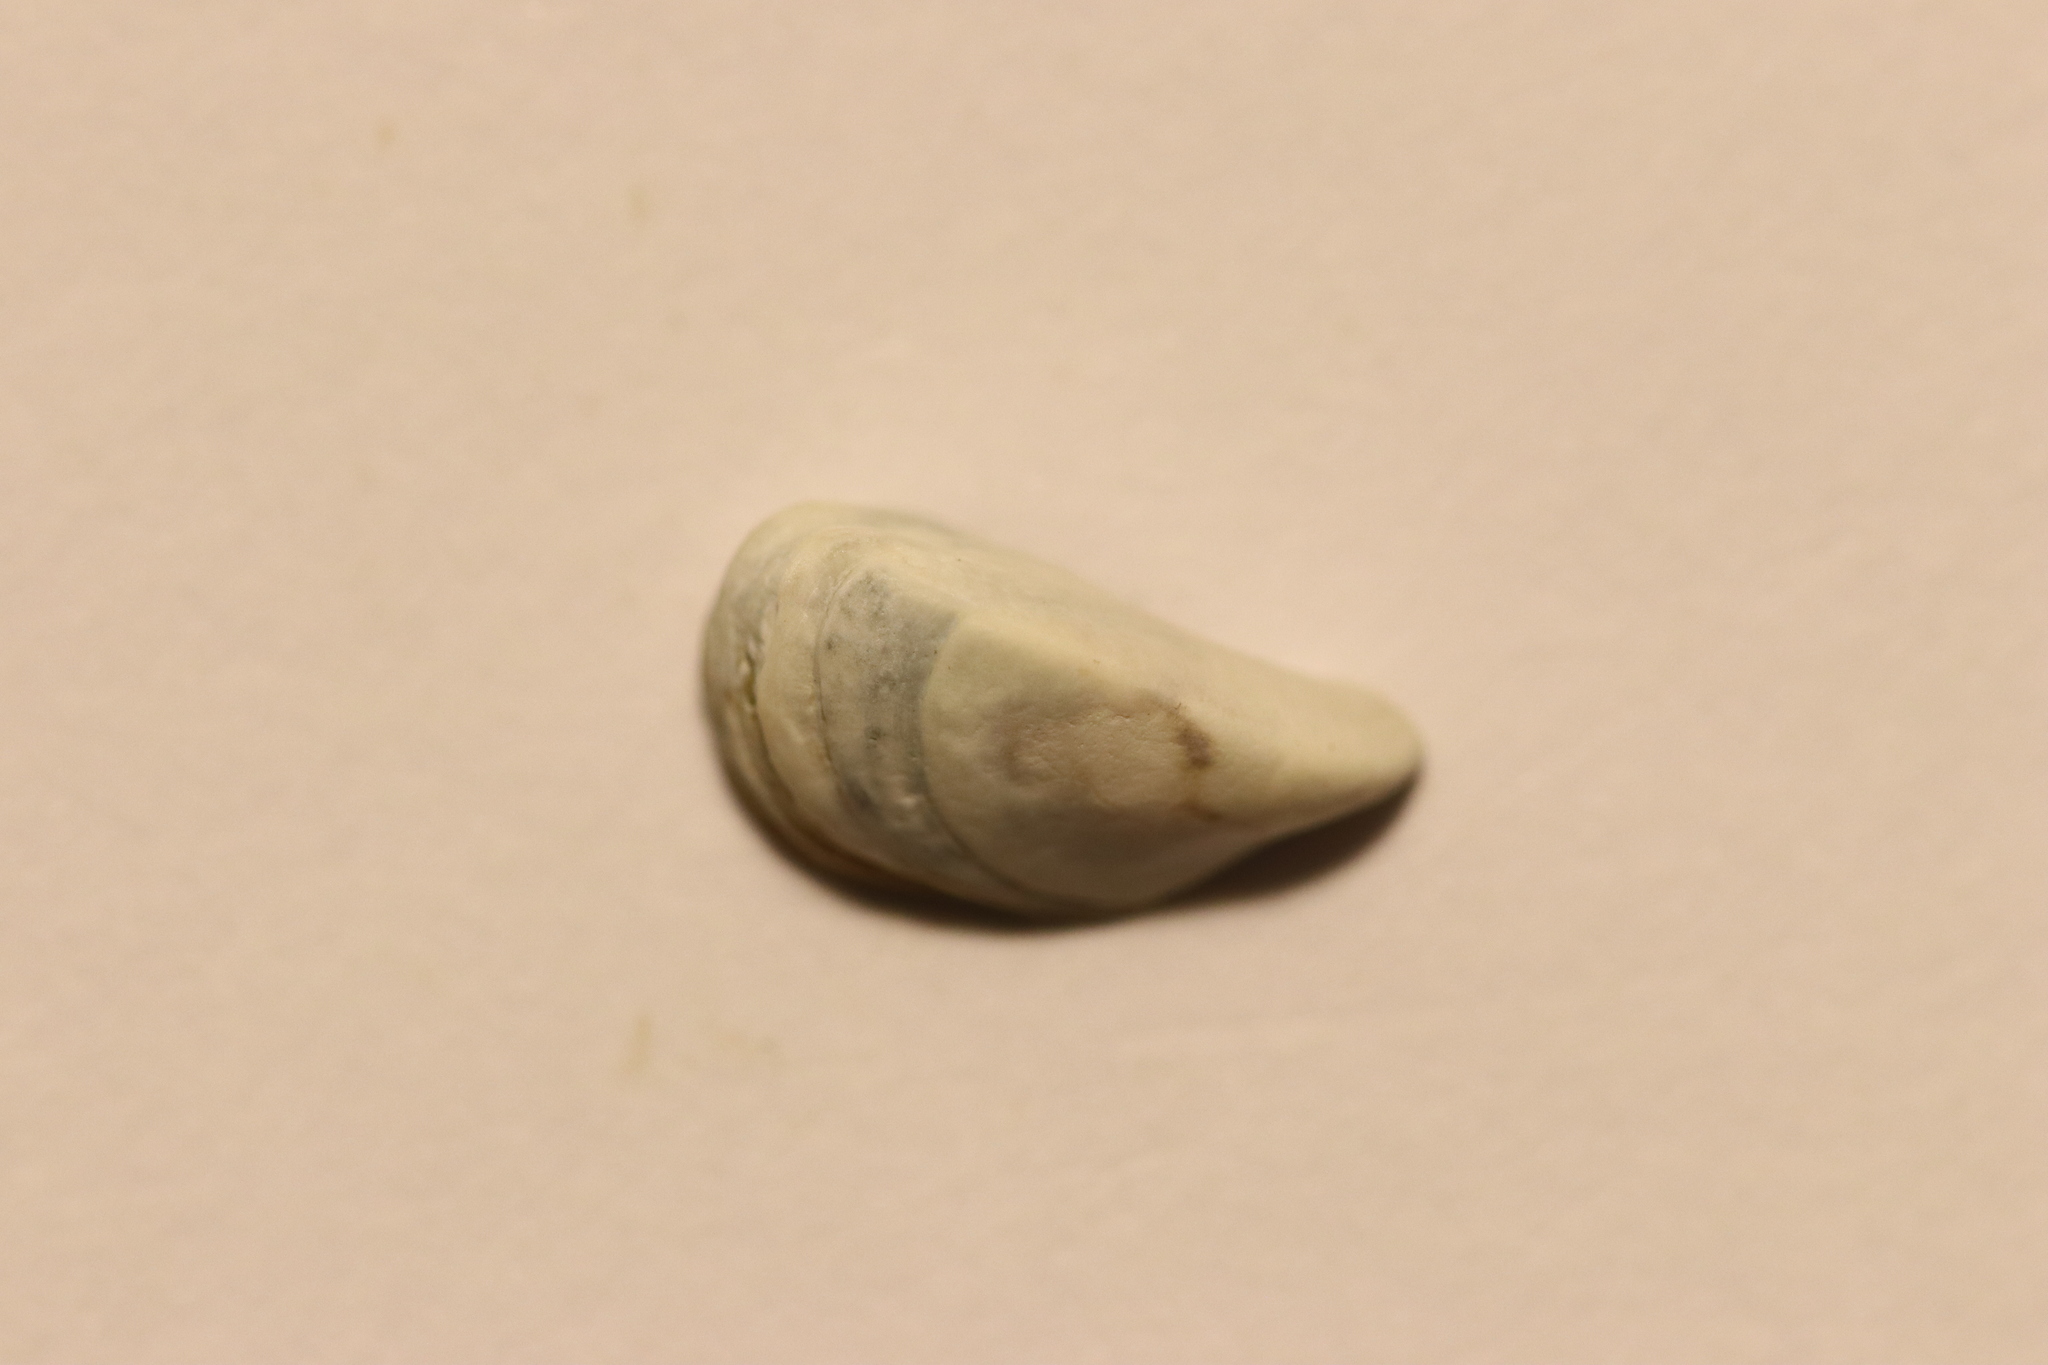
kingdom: Animalia
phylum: Mollusca
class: Bivalvia
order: Myida
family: Dreissenidae
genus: Dreissena
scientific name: Dreissena polymorpha
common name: Zebra mussel
